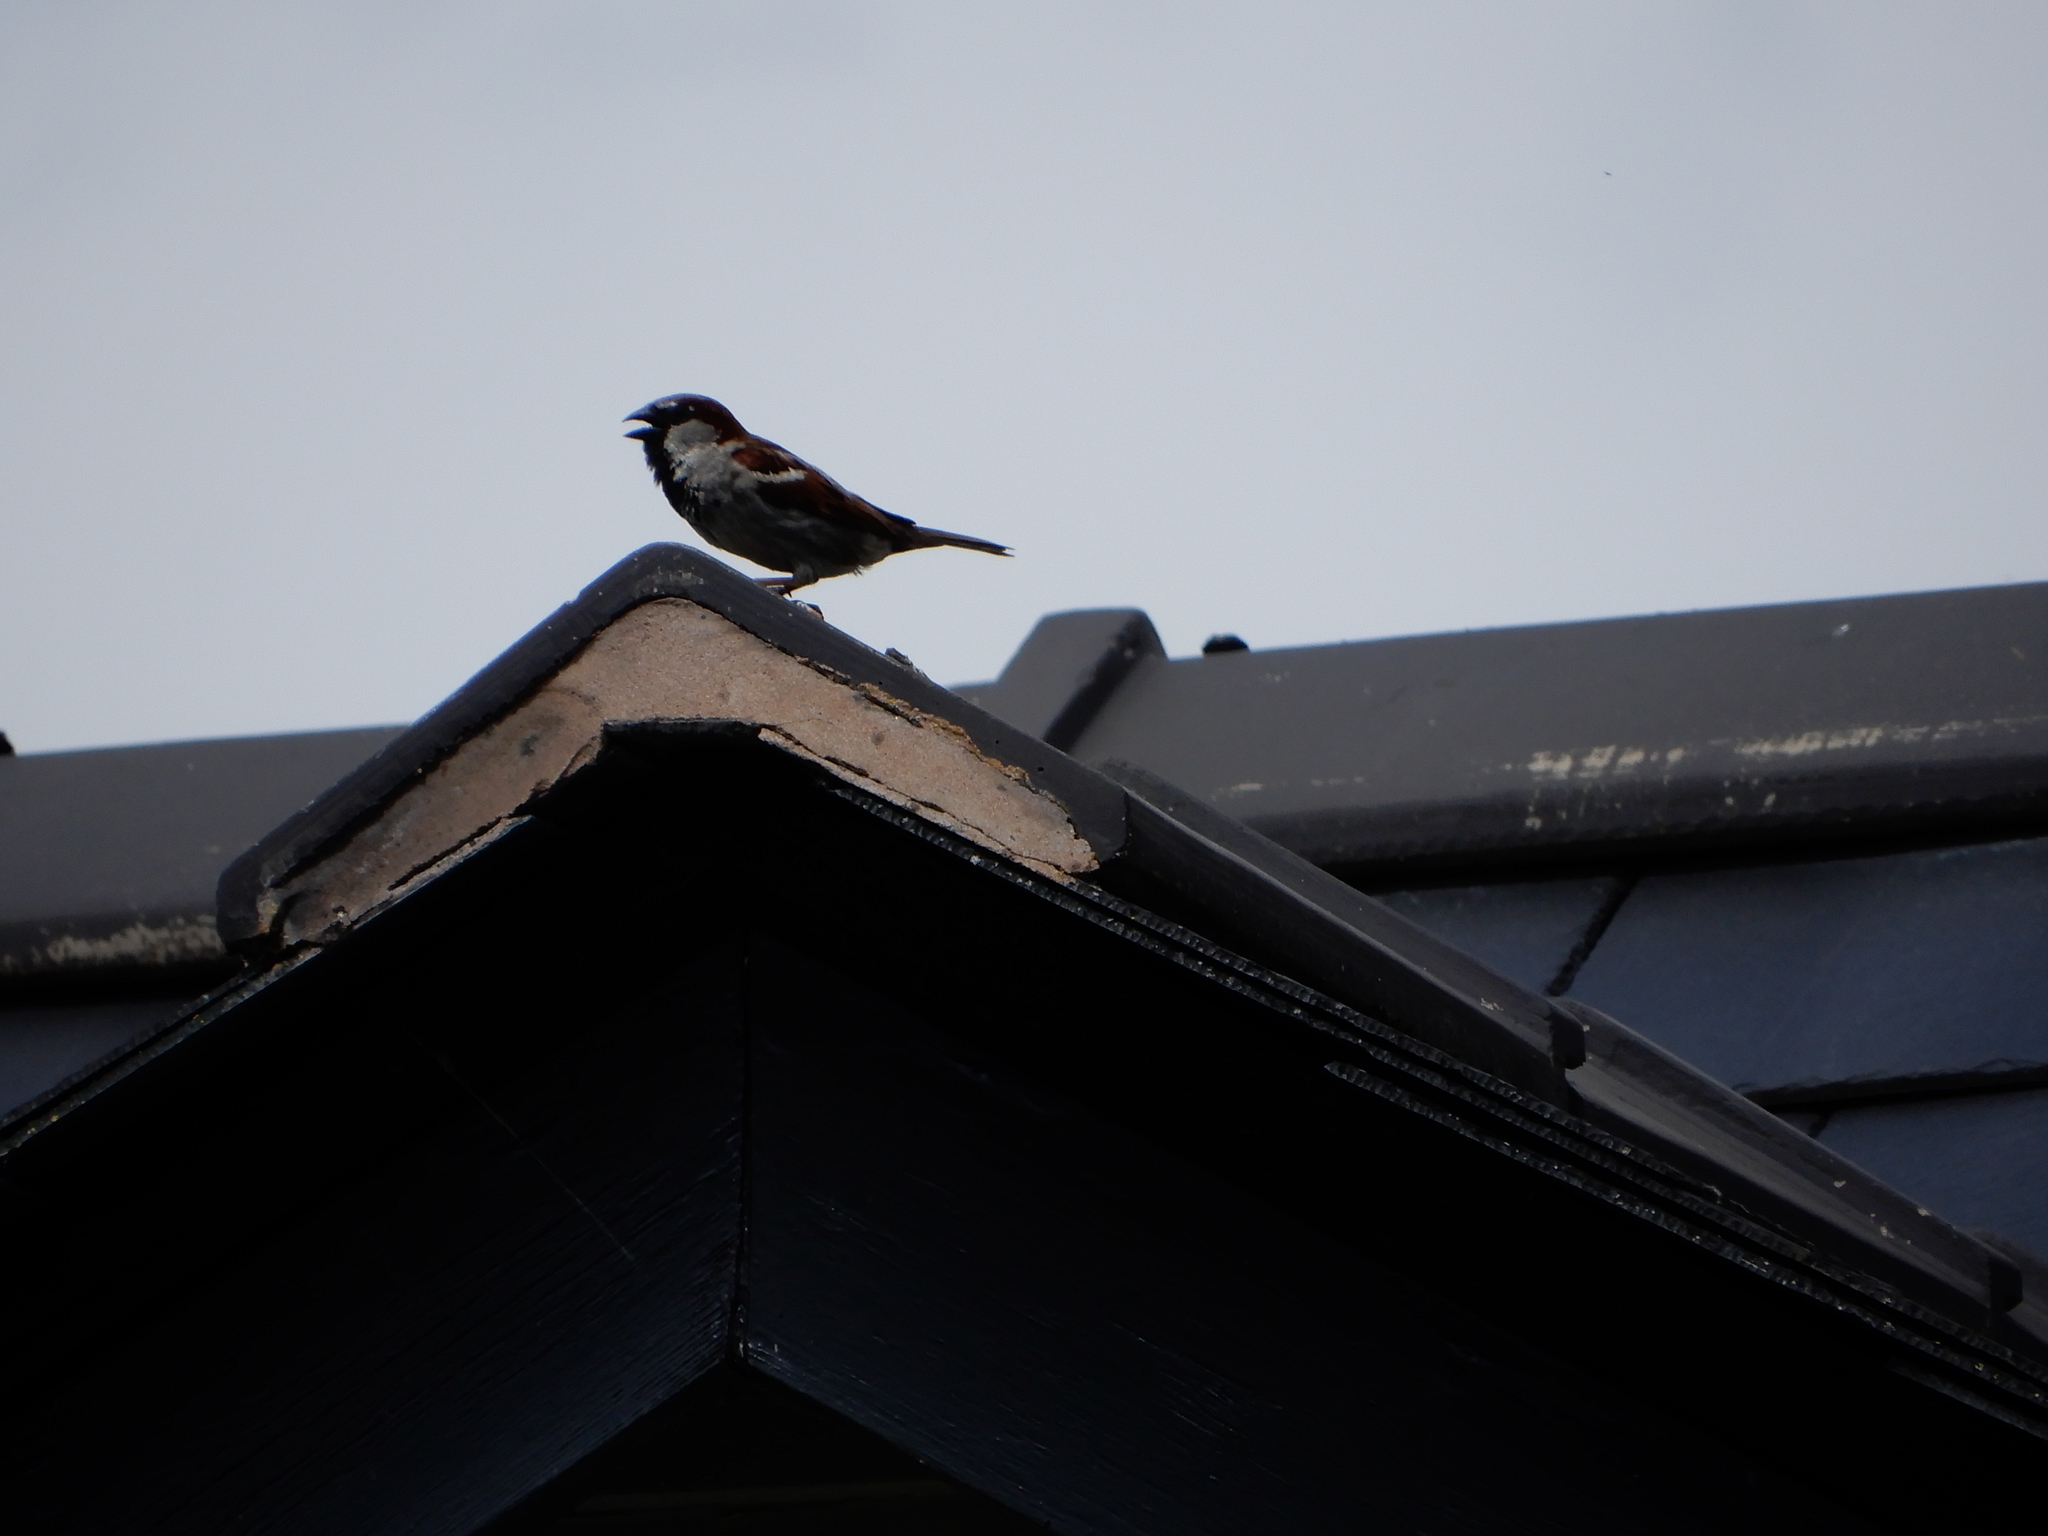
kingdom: Animalia
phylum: Chordata
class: Aves
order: Passeriformes
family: Passeridae
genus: Passer
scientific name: Passer domesticus
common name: House sparrow
